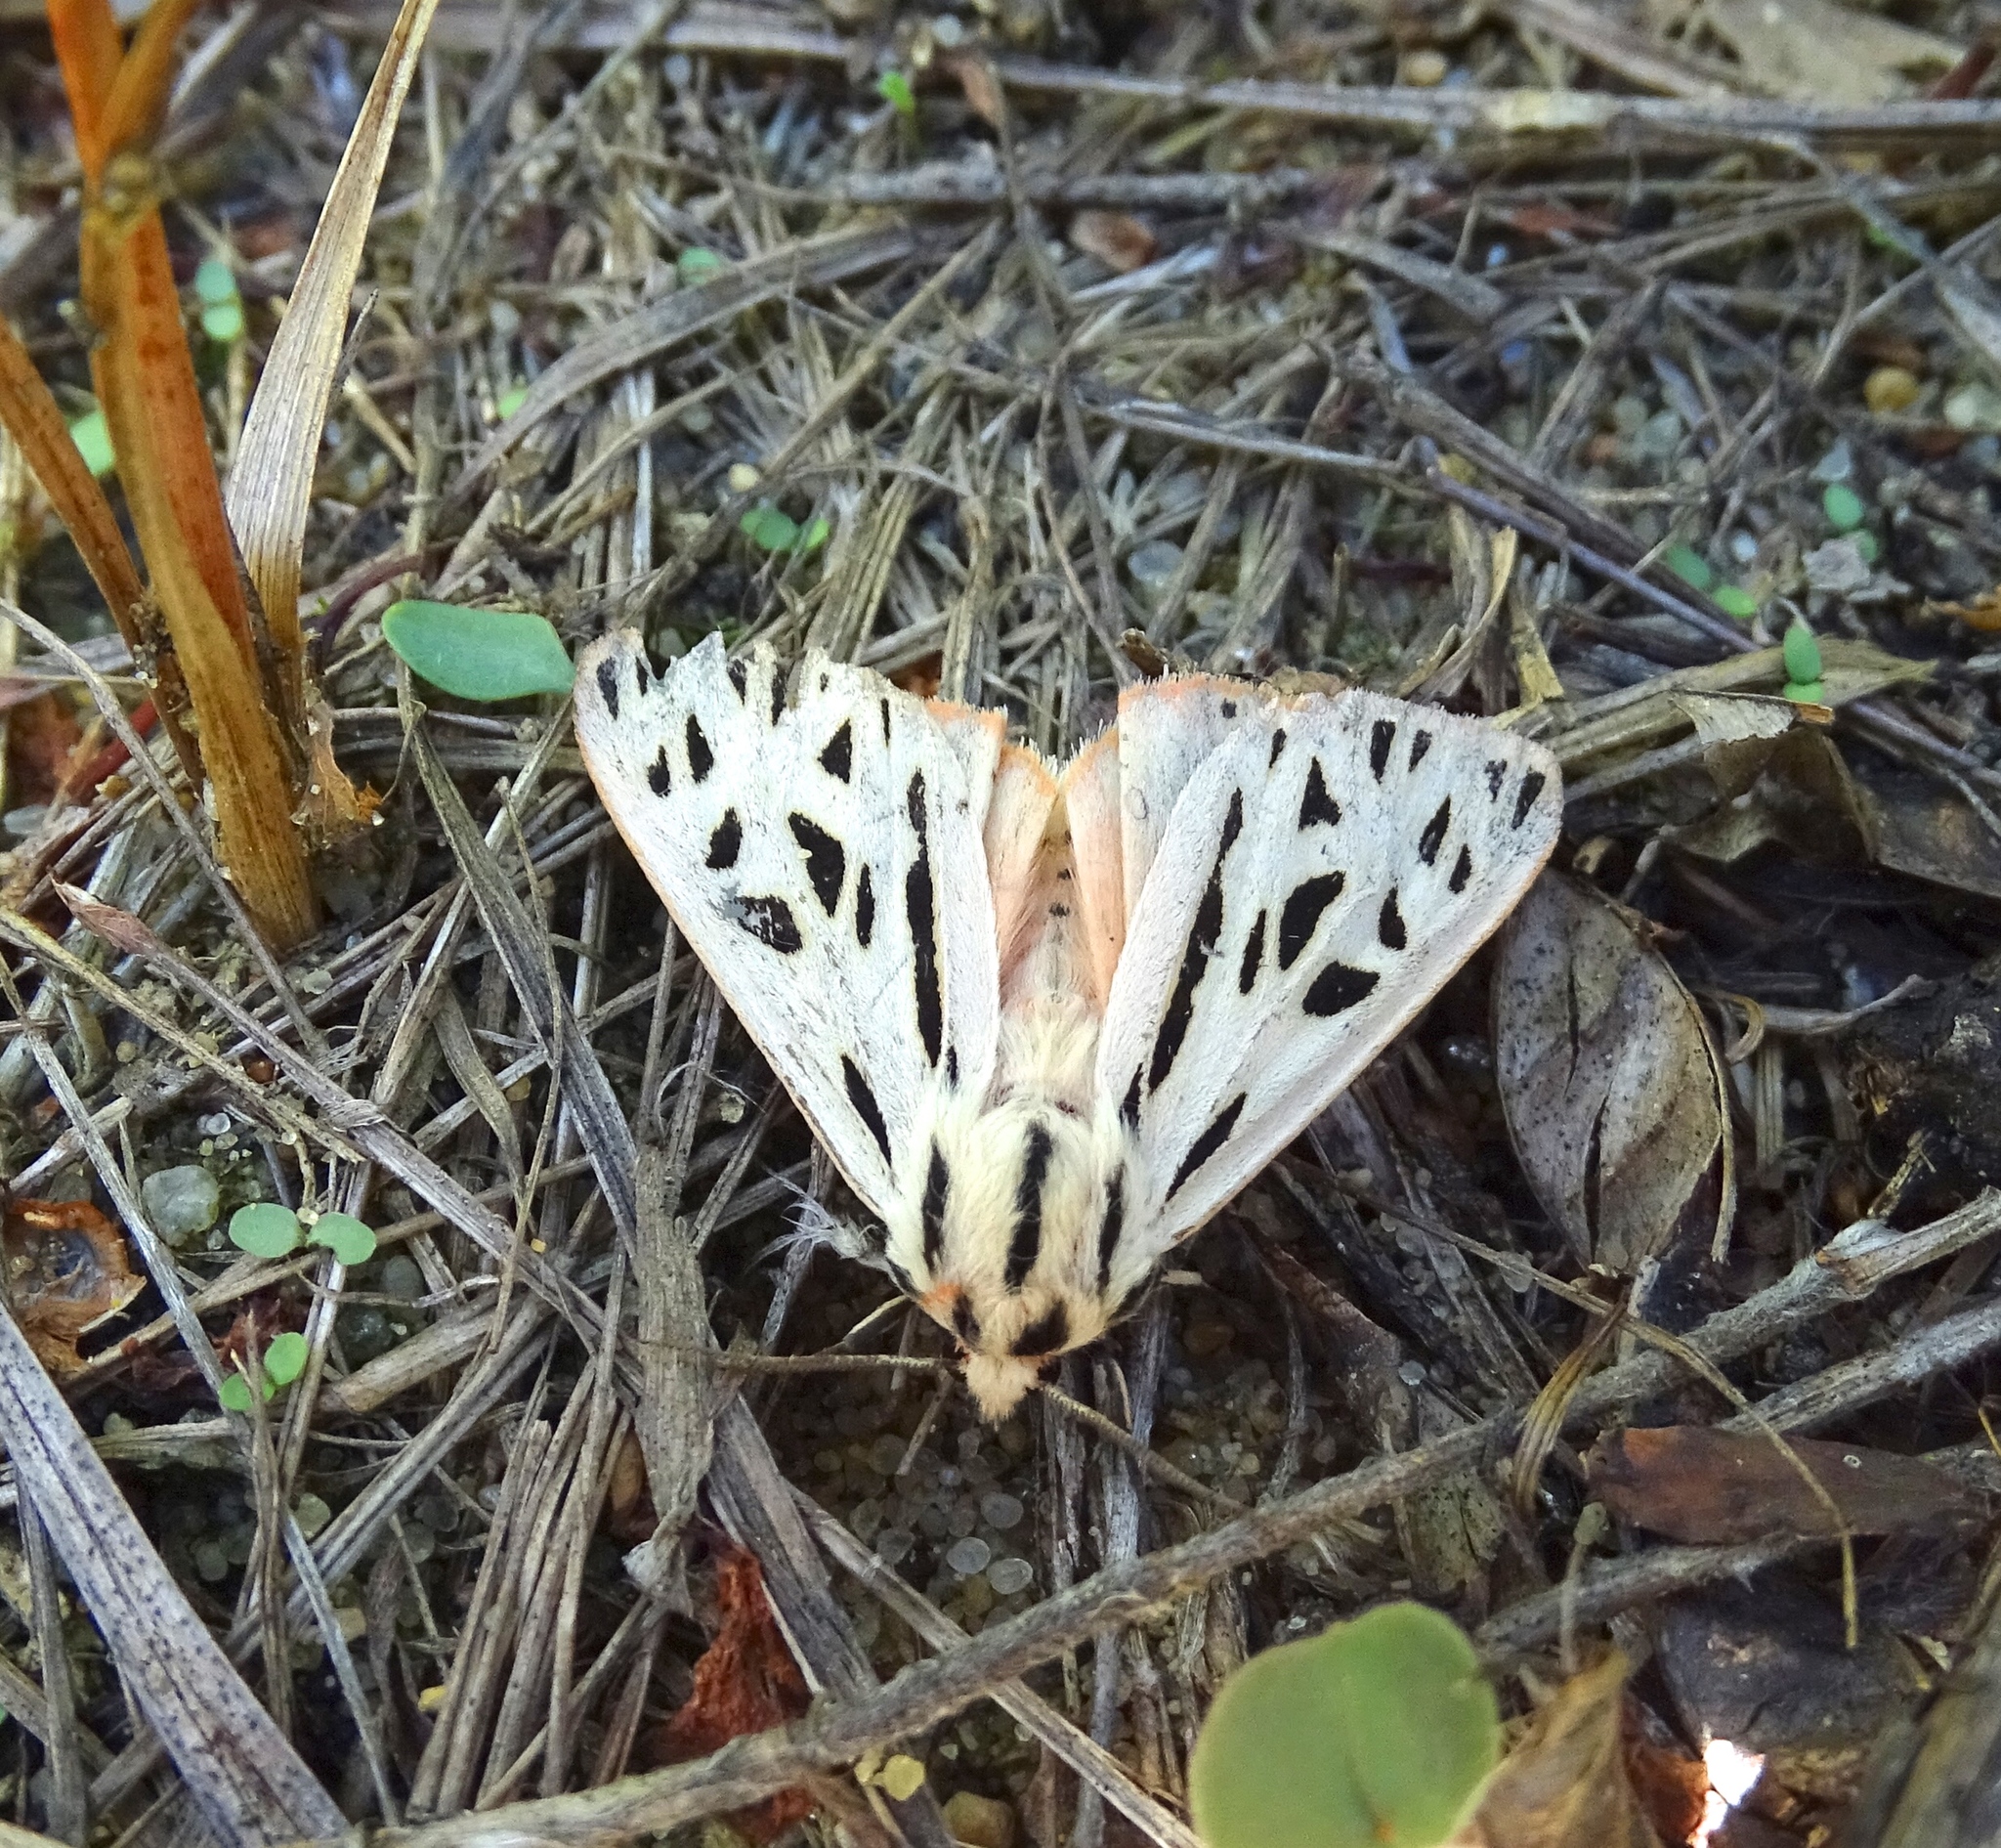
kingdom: Animalia
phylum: Arthropoda
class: Insecta
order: Lepidoptera
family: Erebidae
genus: Apantesis
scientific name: Apantesis arge
